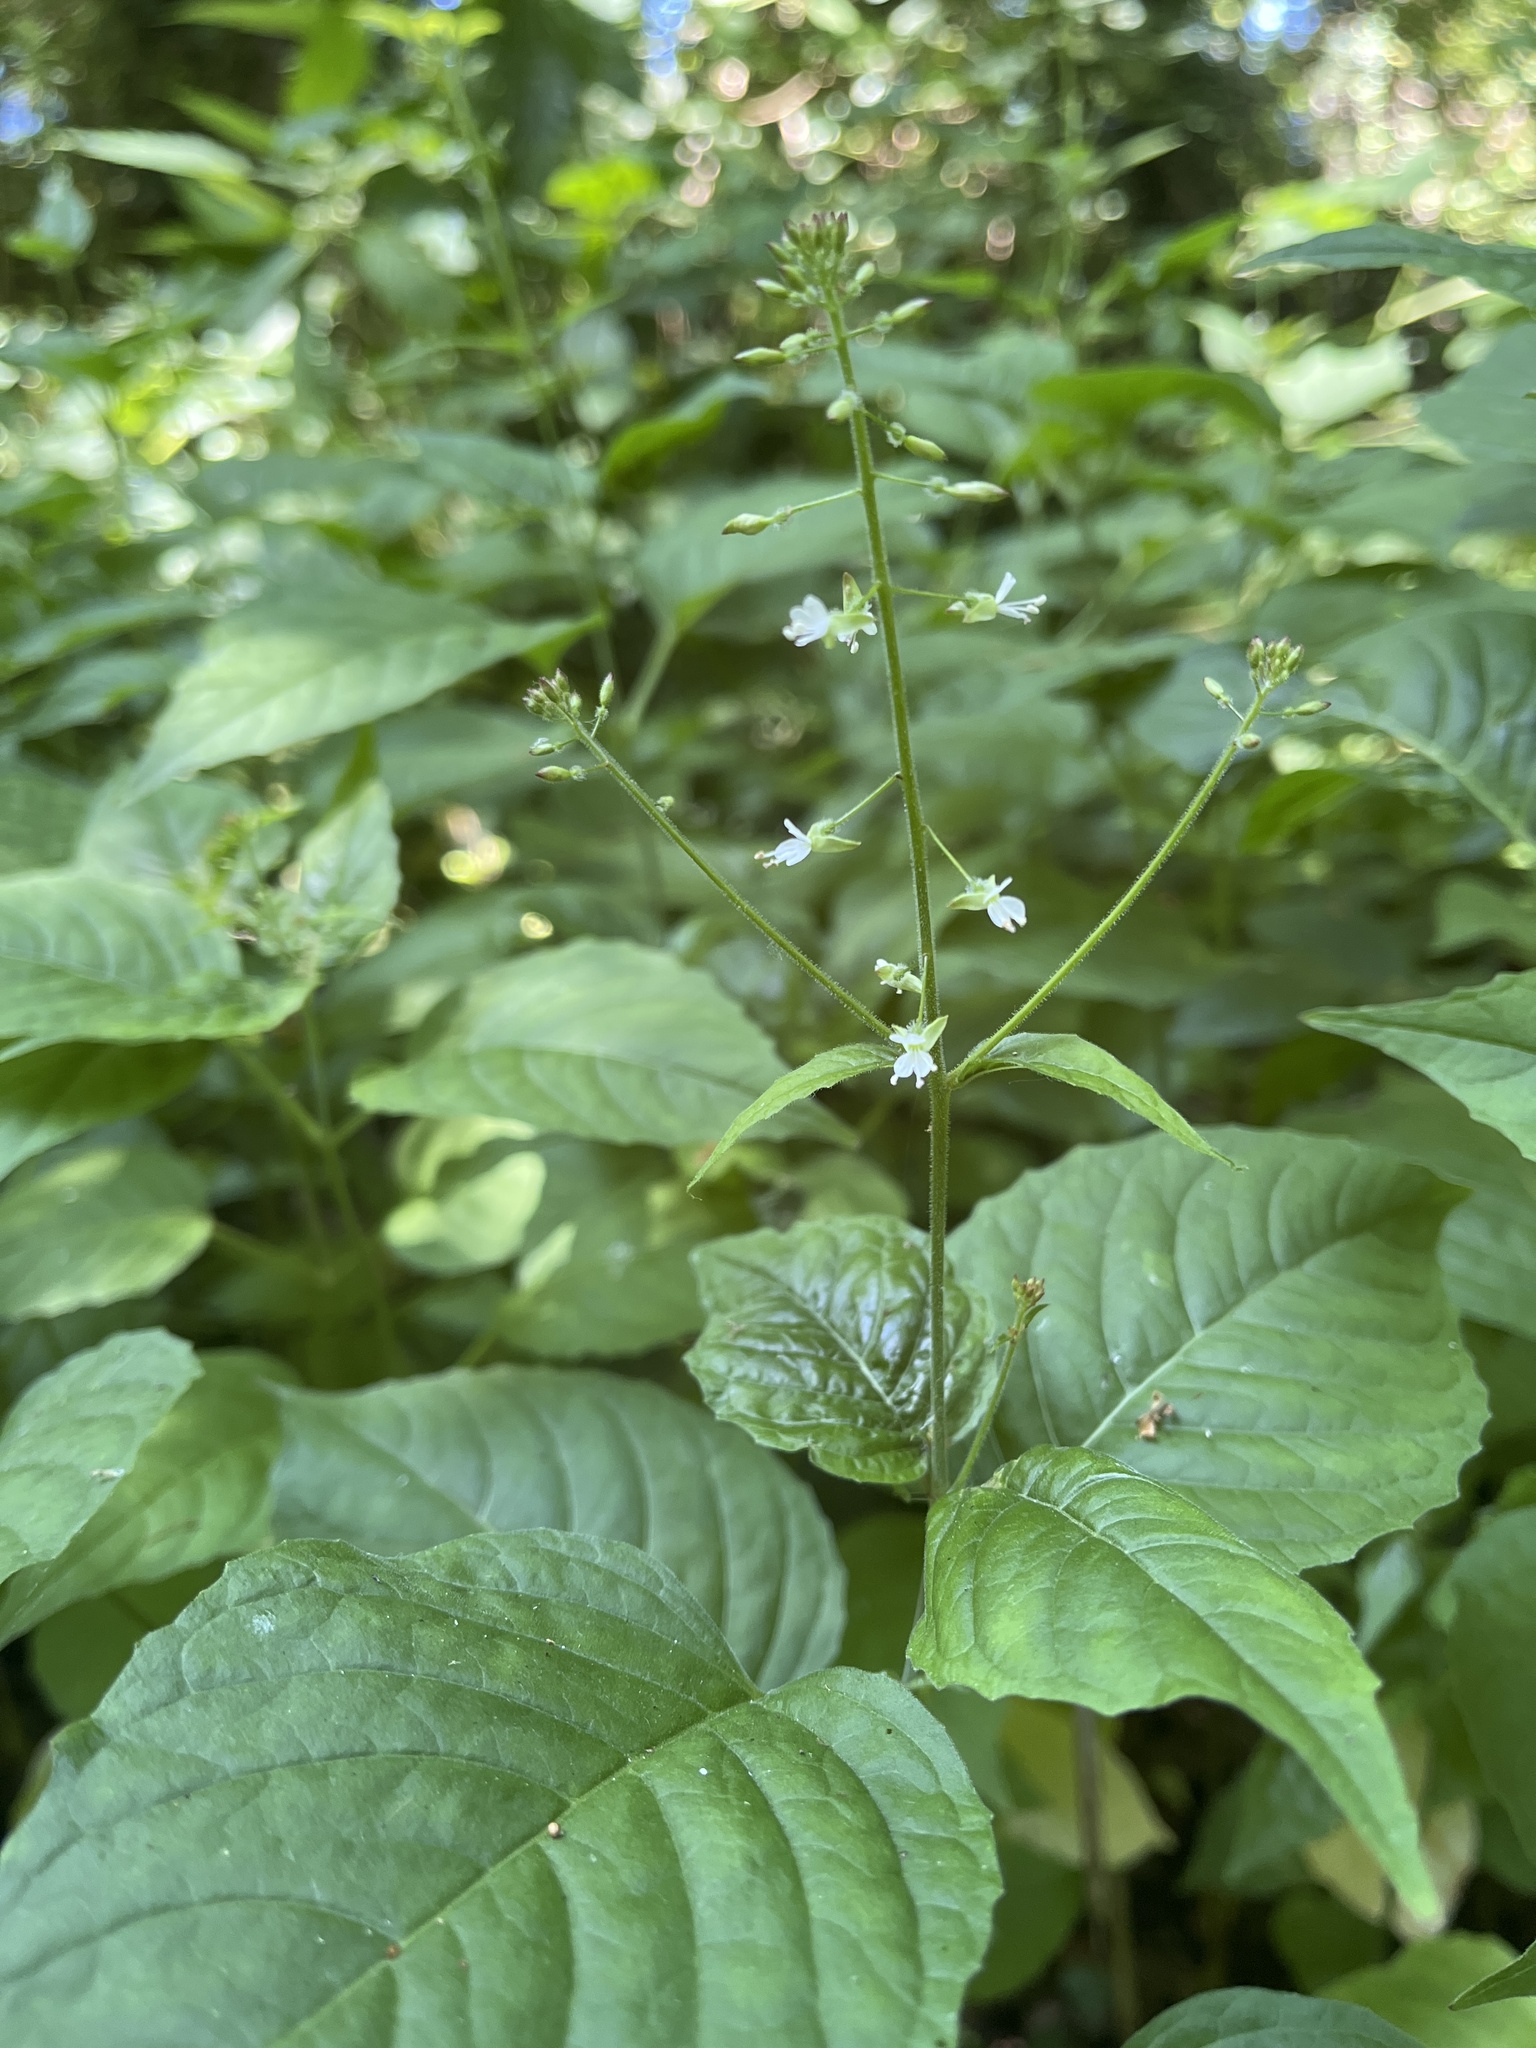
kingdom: Plantae
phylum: Tracheophyta
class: Magnoliopsida
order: Myrtales
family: Onagraceae
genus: Circaea
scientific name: Circaea lutetiana
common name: Enchanter's-nightshade
